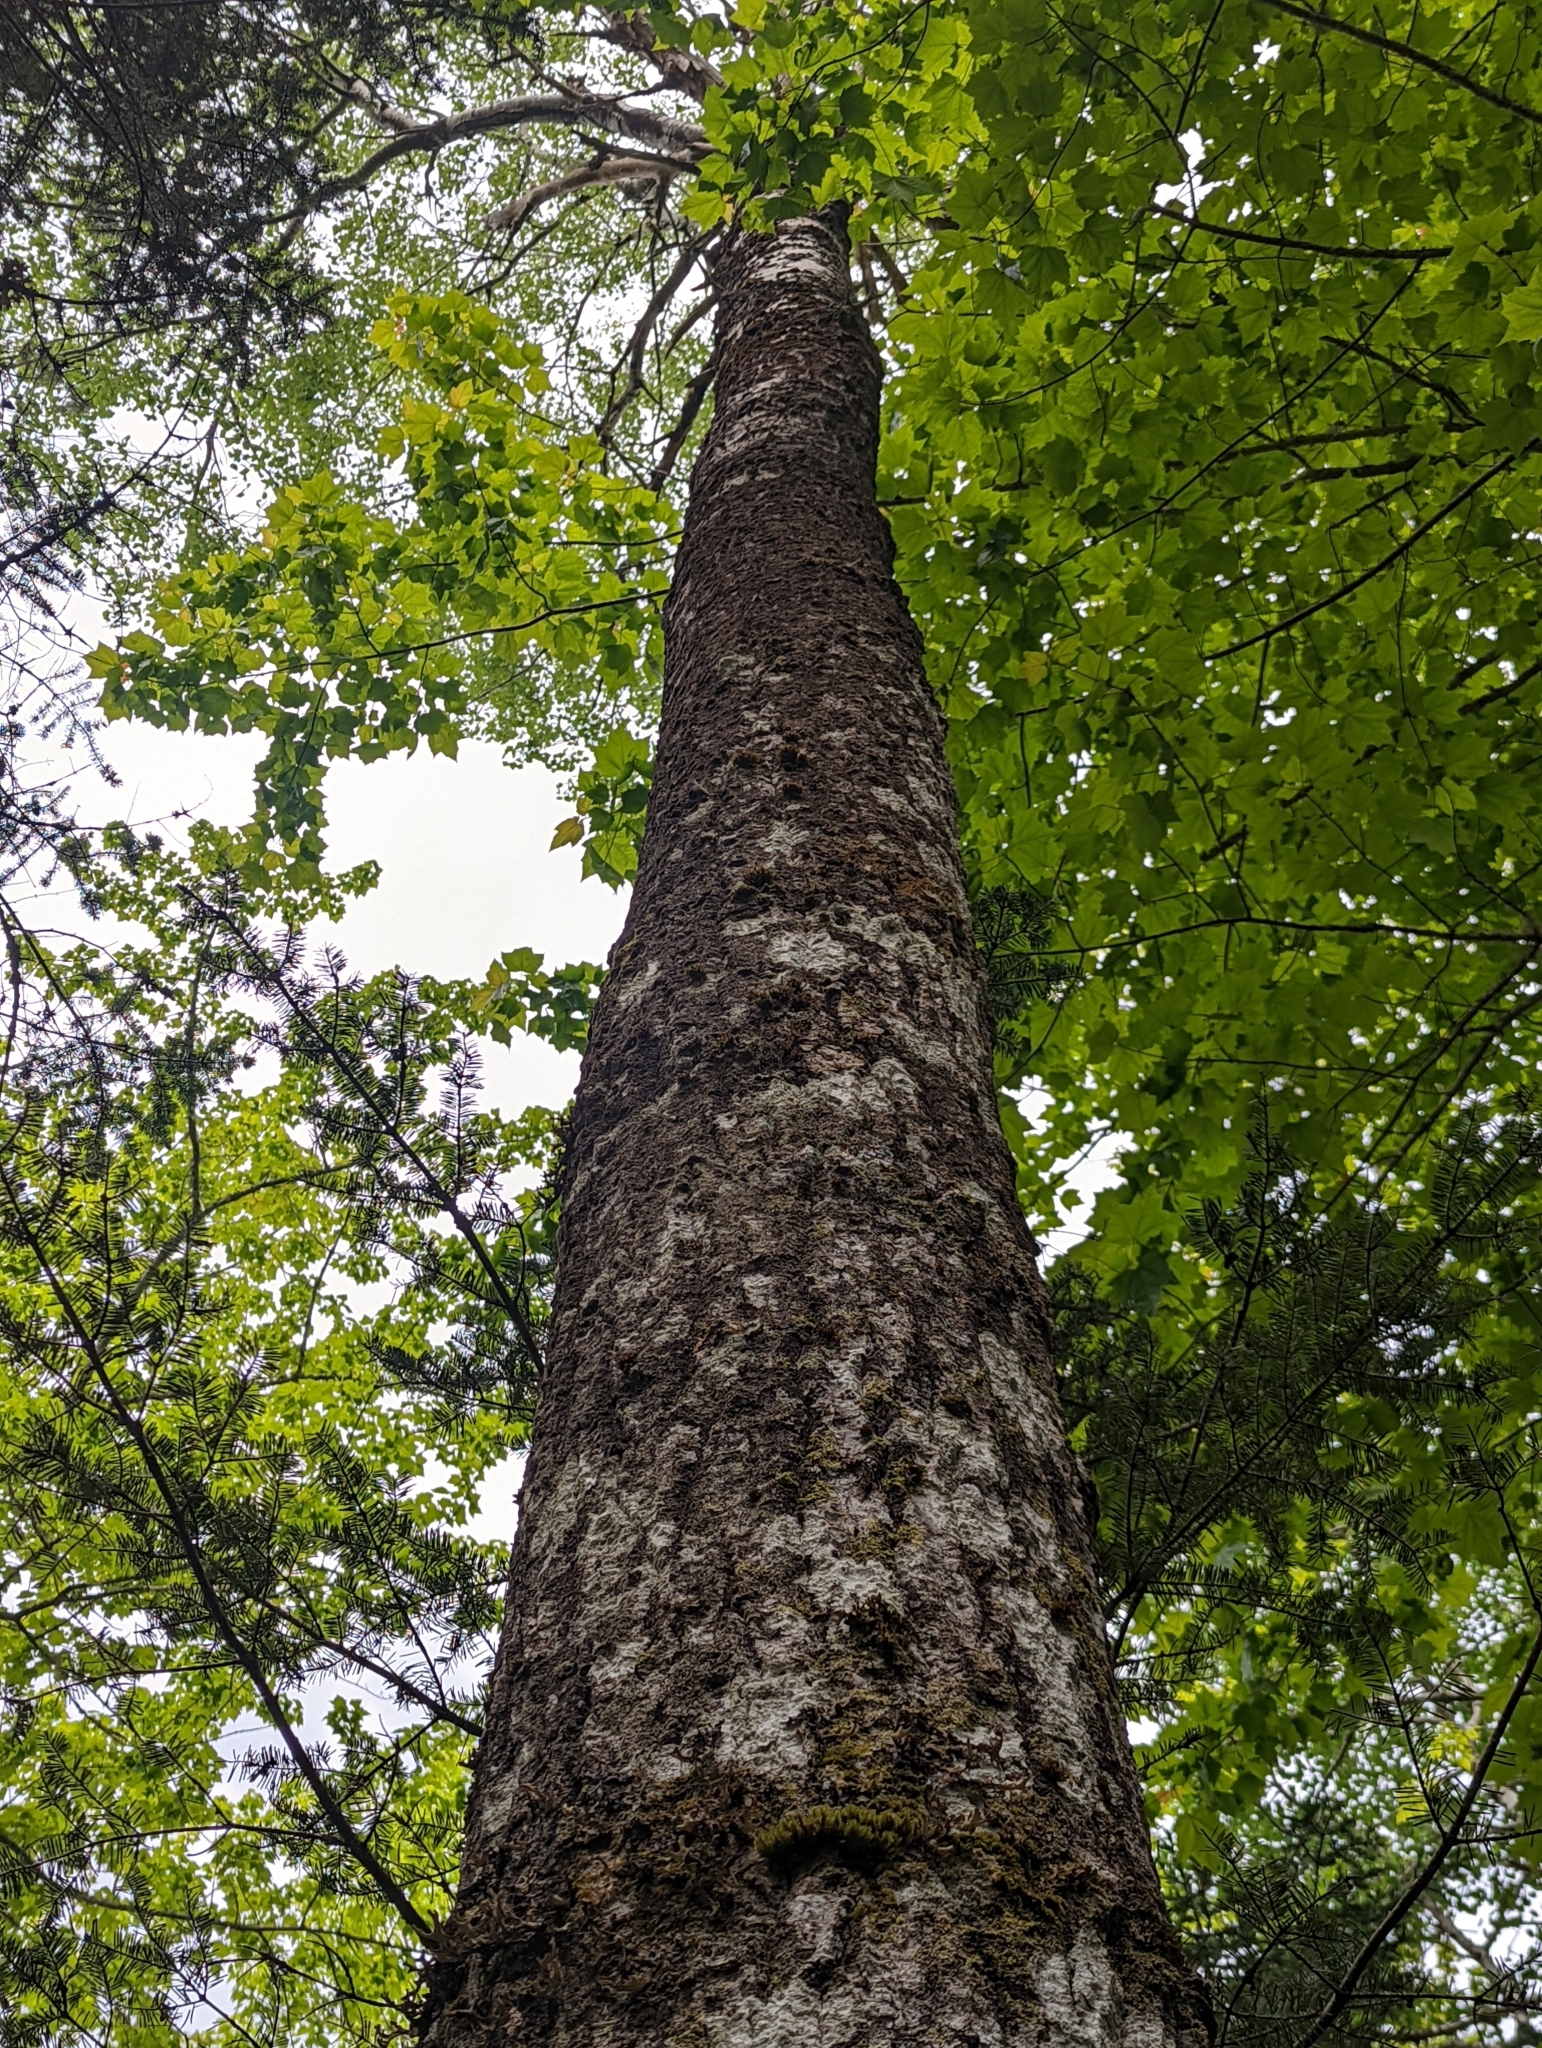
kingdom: Plantae
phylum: Tracheophyta
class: Magnoliopsida
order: Malpighiales
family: Salicaceae
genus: Populus
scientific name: Populus tremuloides
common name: Quaking aspen
